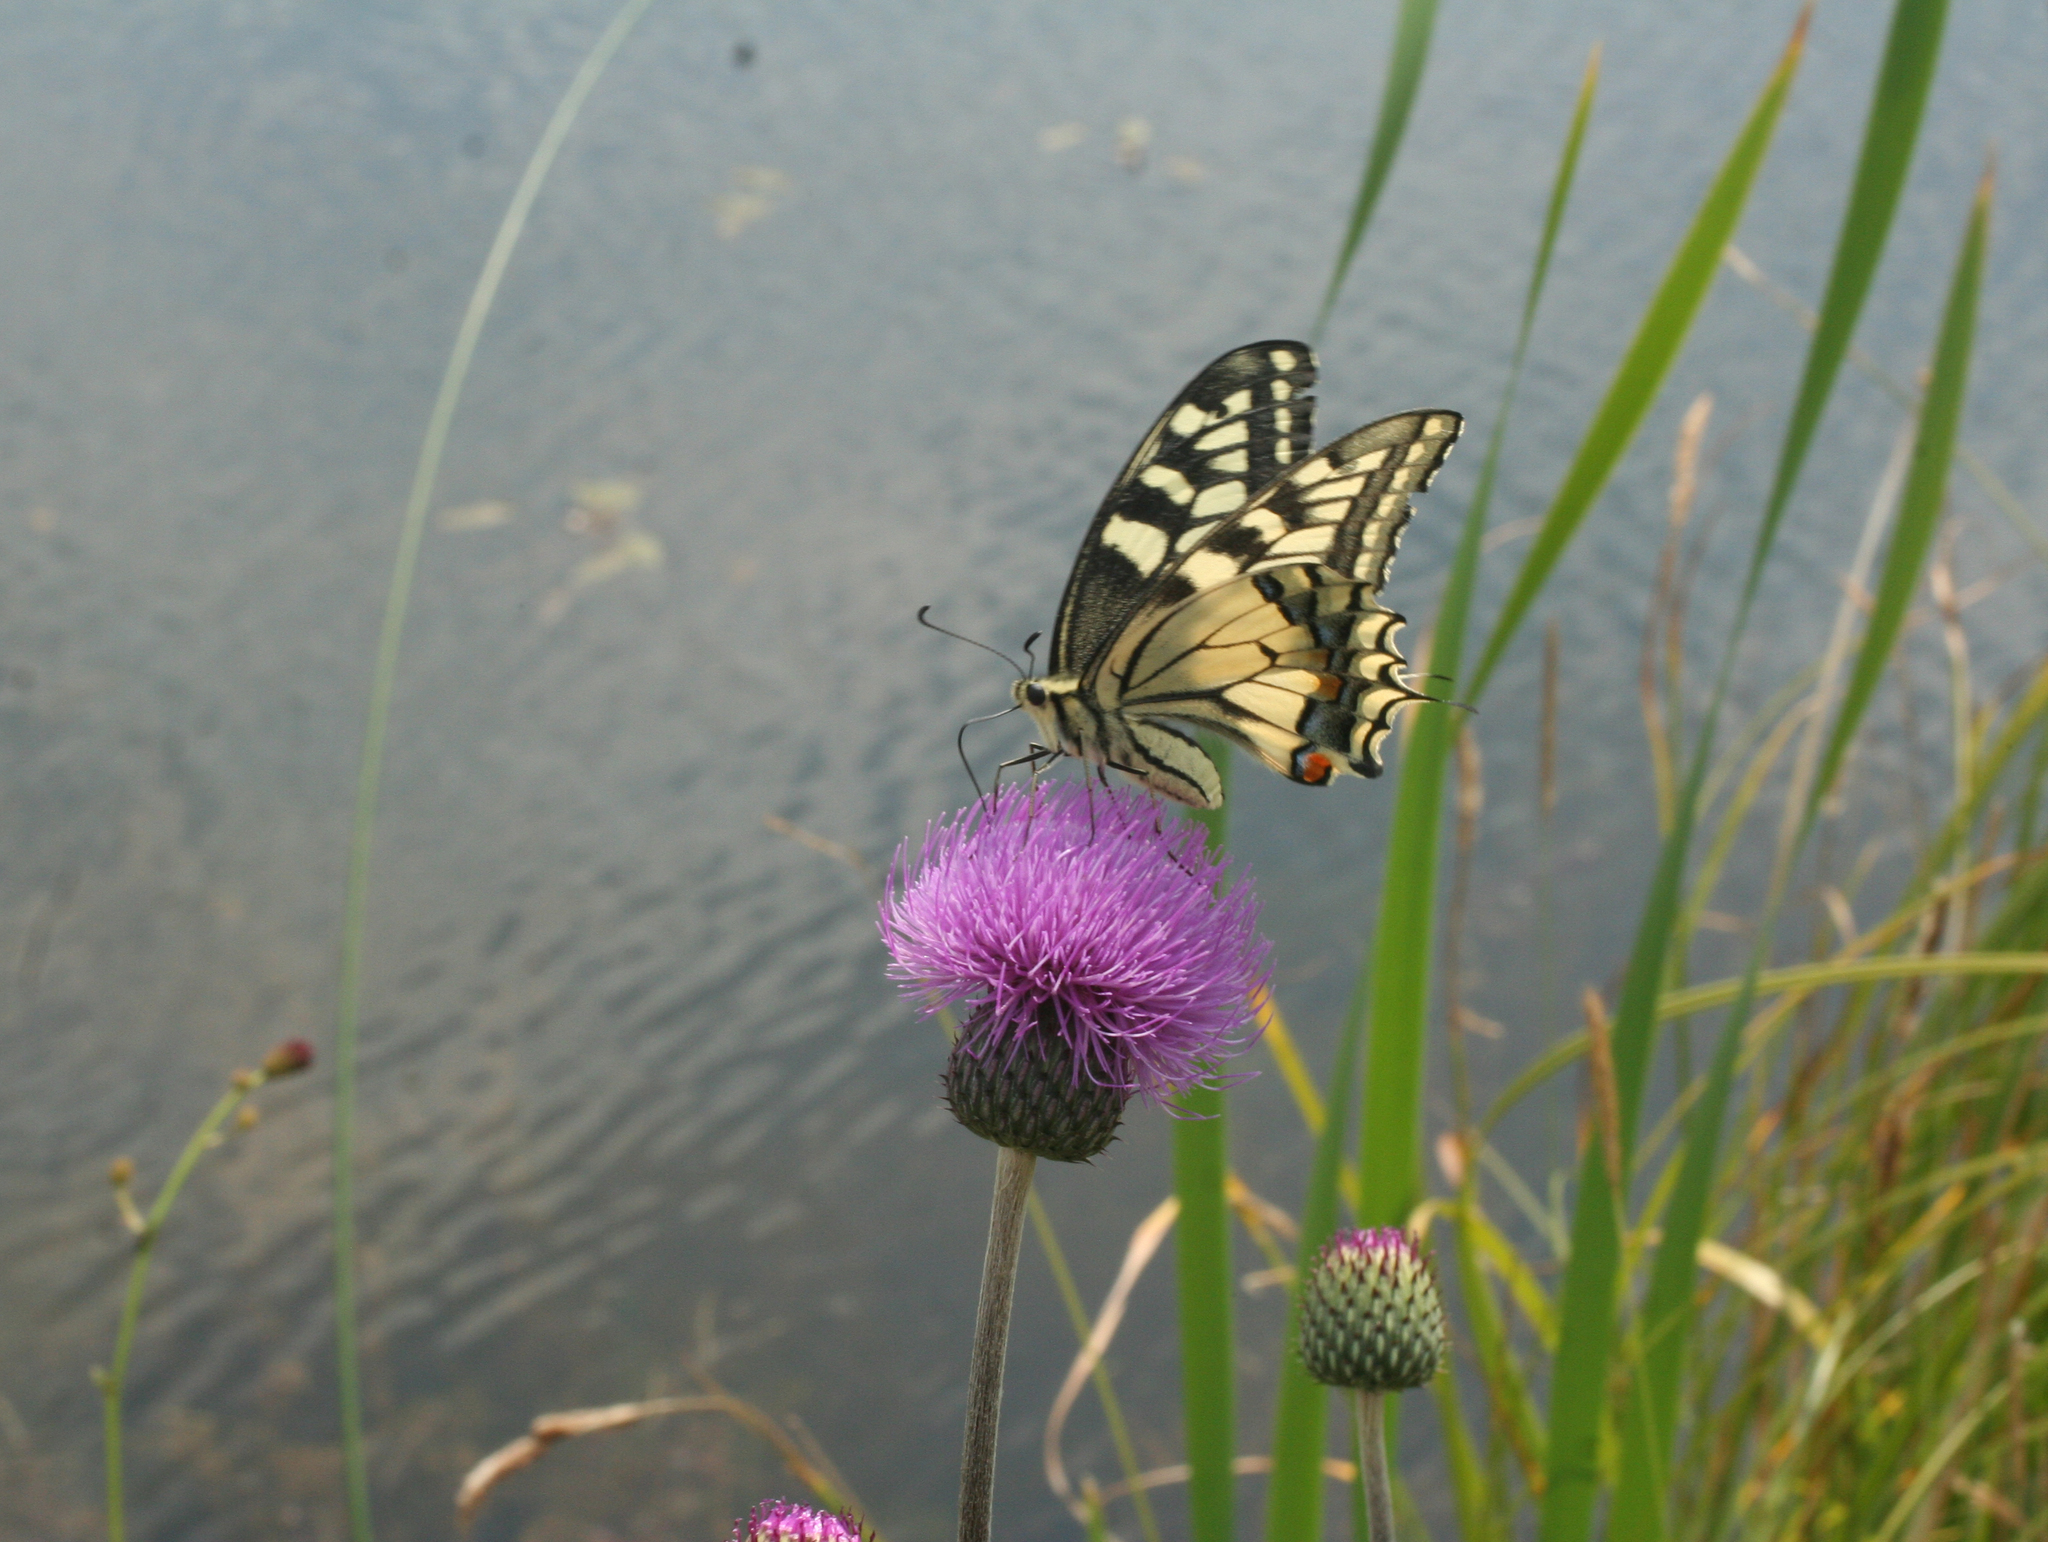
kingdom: Plantae
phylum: Tracheophyta
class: Magnoliopsida
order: Asterales
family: Asteraceae
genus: Cirsium
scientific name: Cirsium heterophyllum
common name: Melancholy thistle
